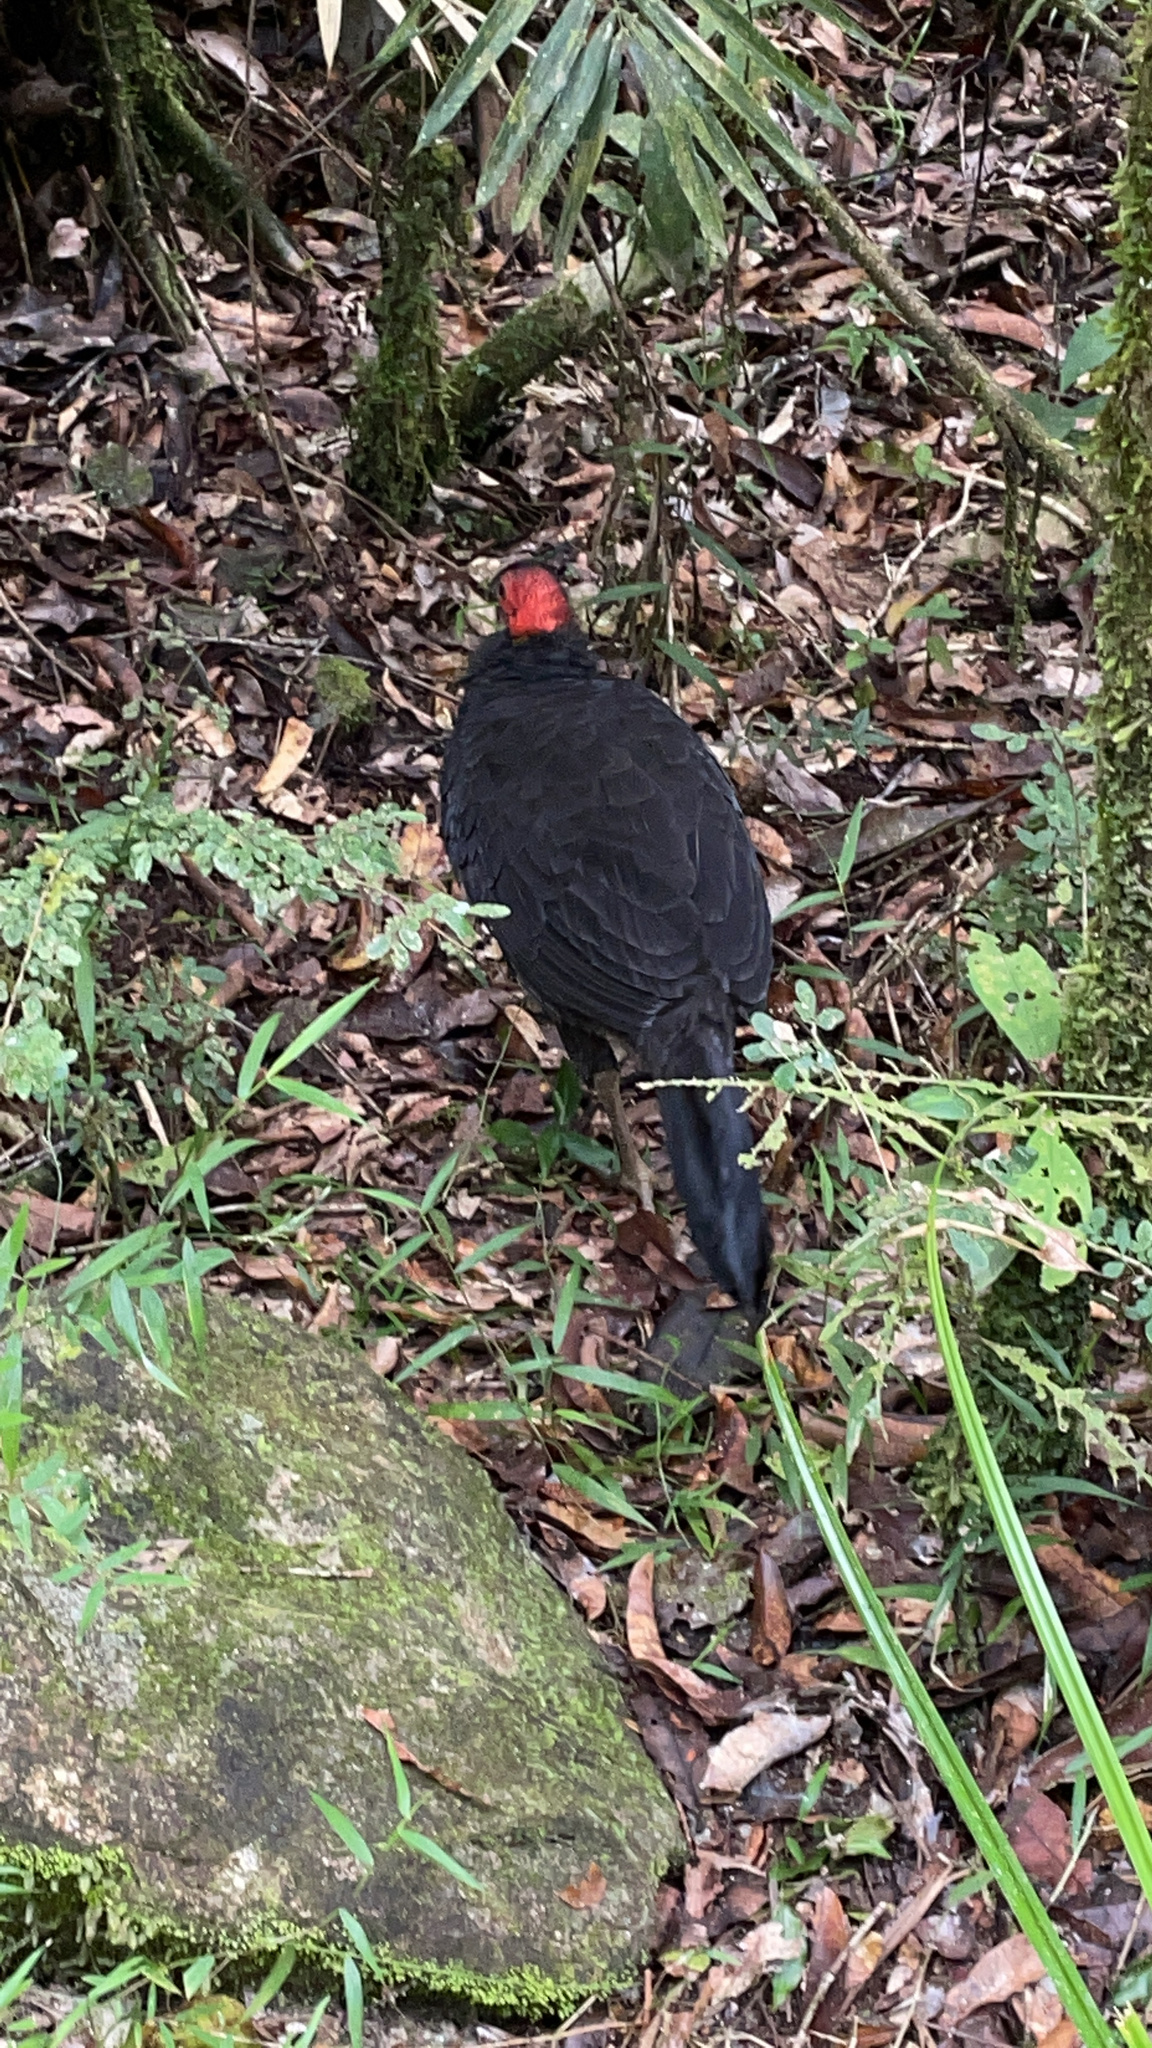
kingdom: Animalia
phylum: Chordata
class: Aves
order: Galliformes
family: Megapodiidae
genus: Alectura
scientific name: Alectura lathami
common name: Australian brushturkey
